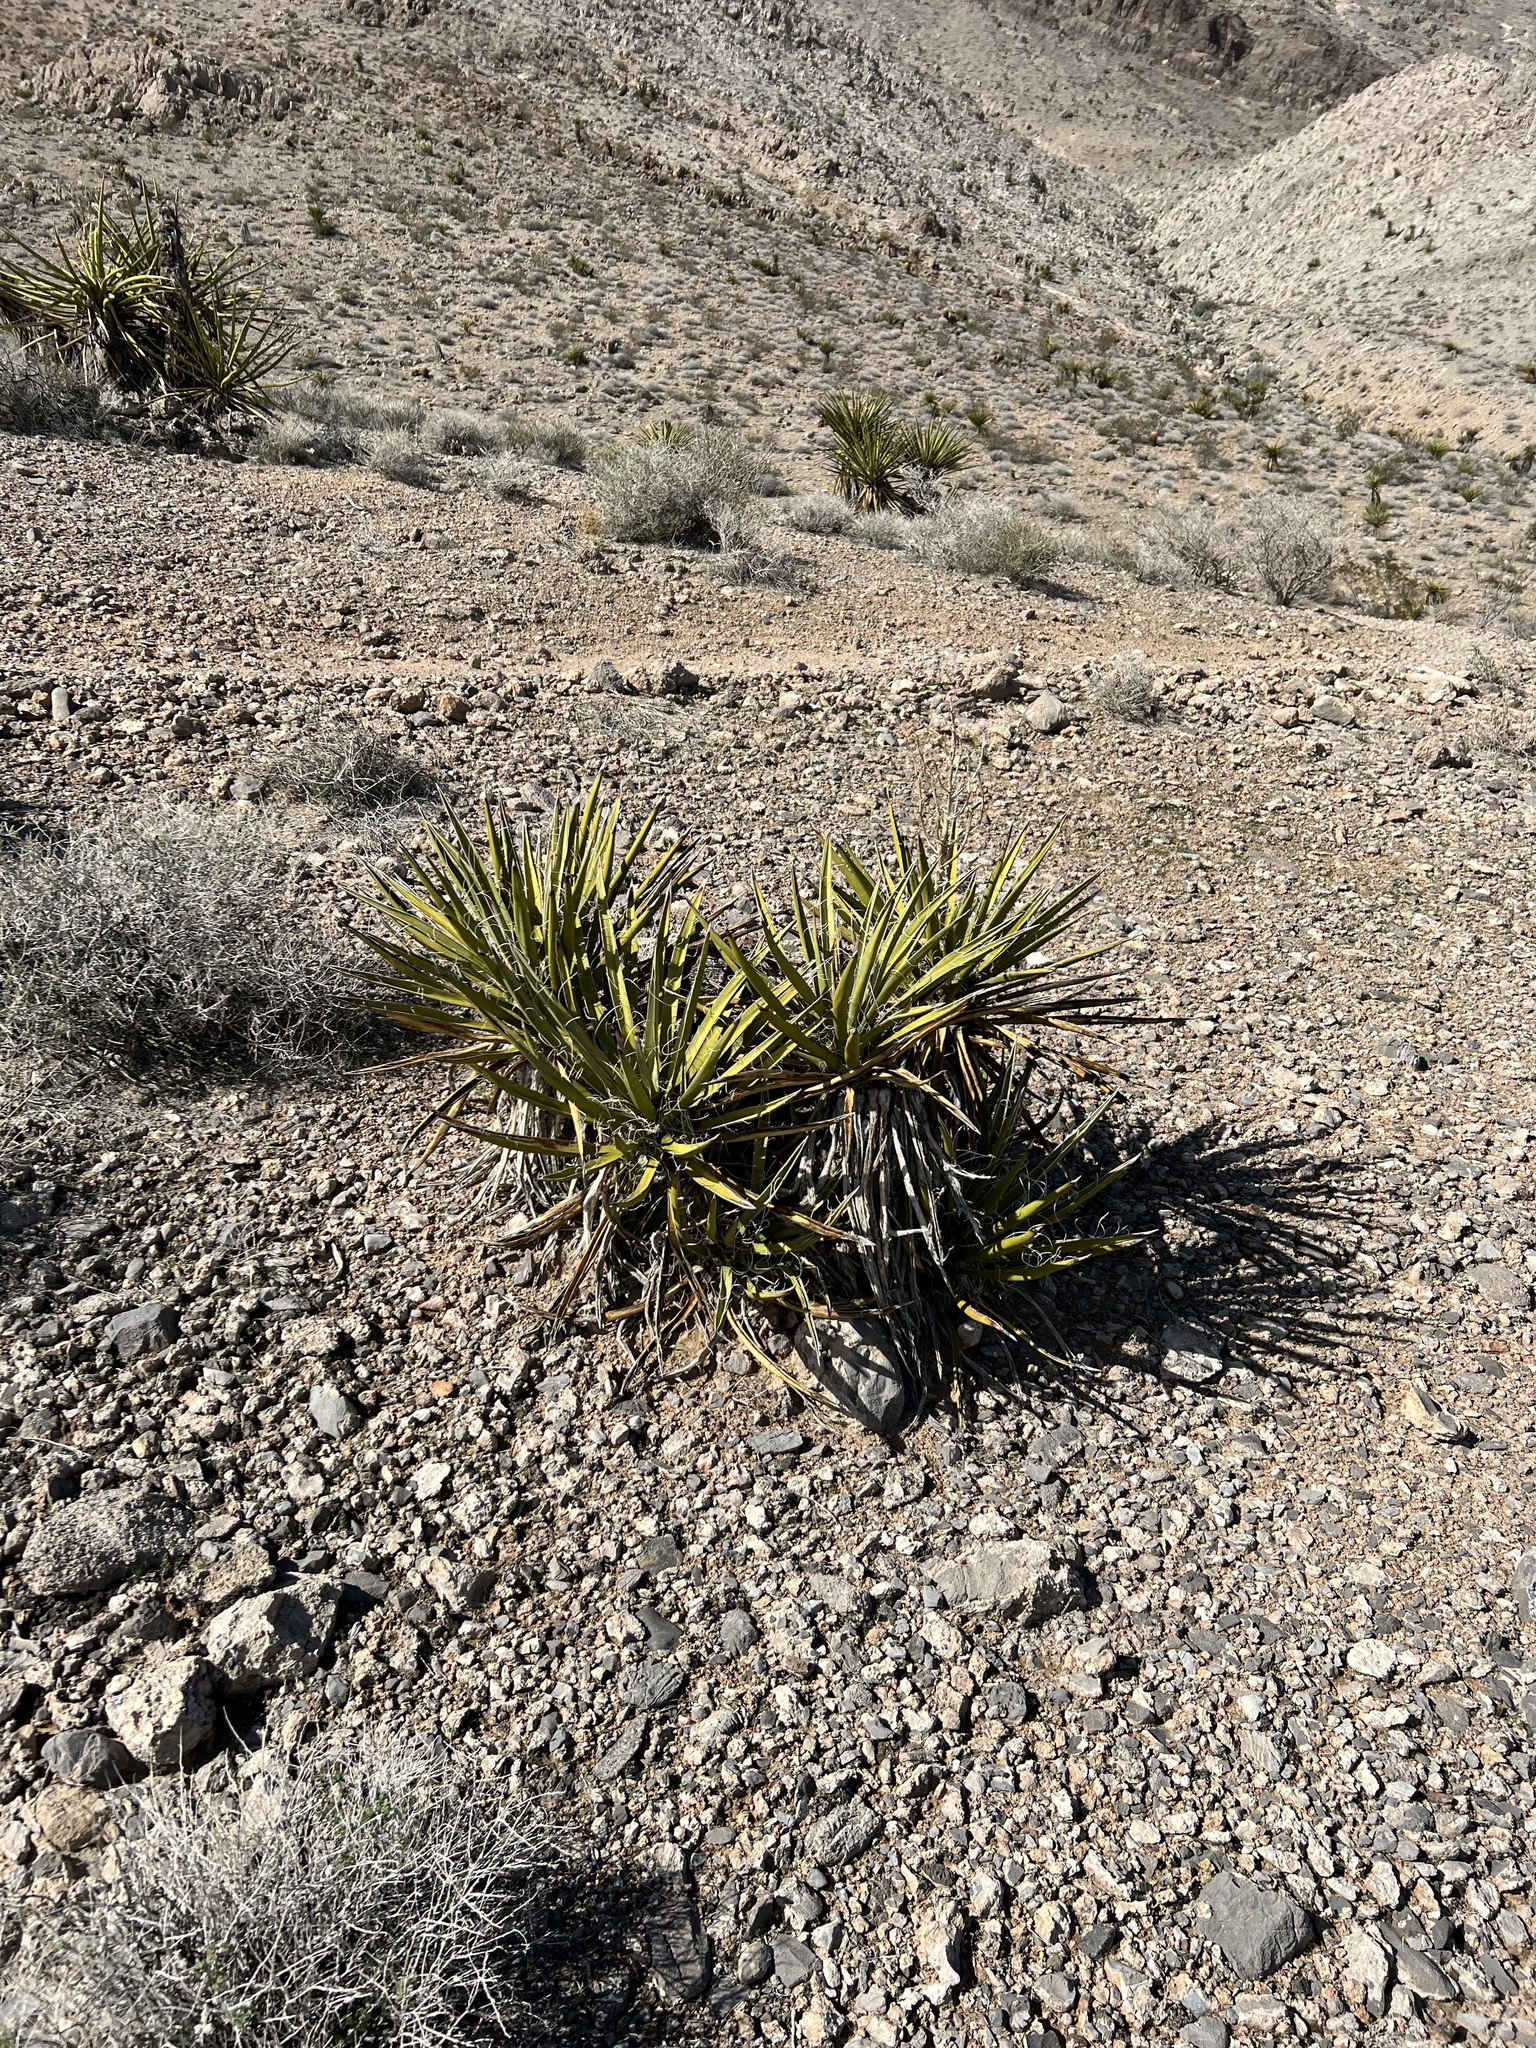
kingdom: Plantae
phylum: Tracheophyta
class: Liliopsida
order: Asparagales
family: Asparagaceae
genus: Yucca
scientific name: Yucca baccata
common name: Banana yucca
